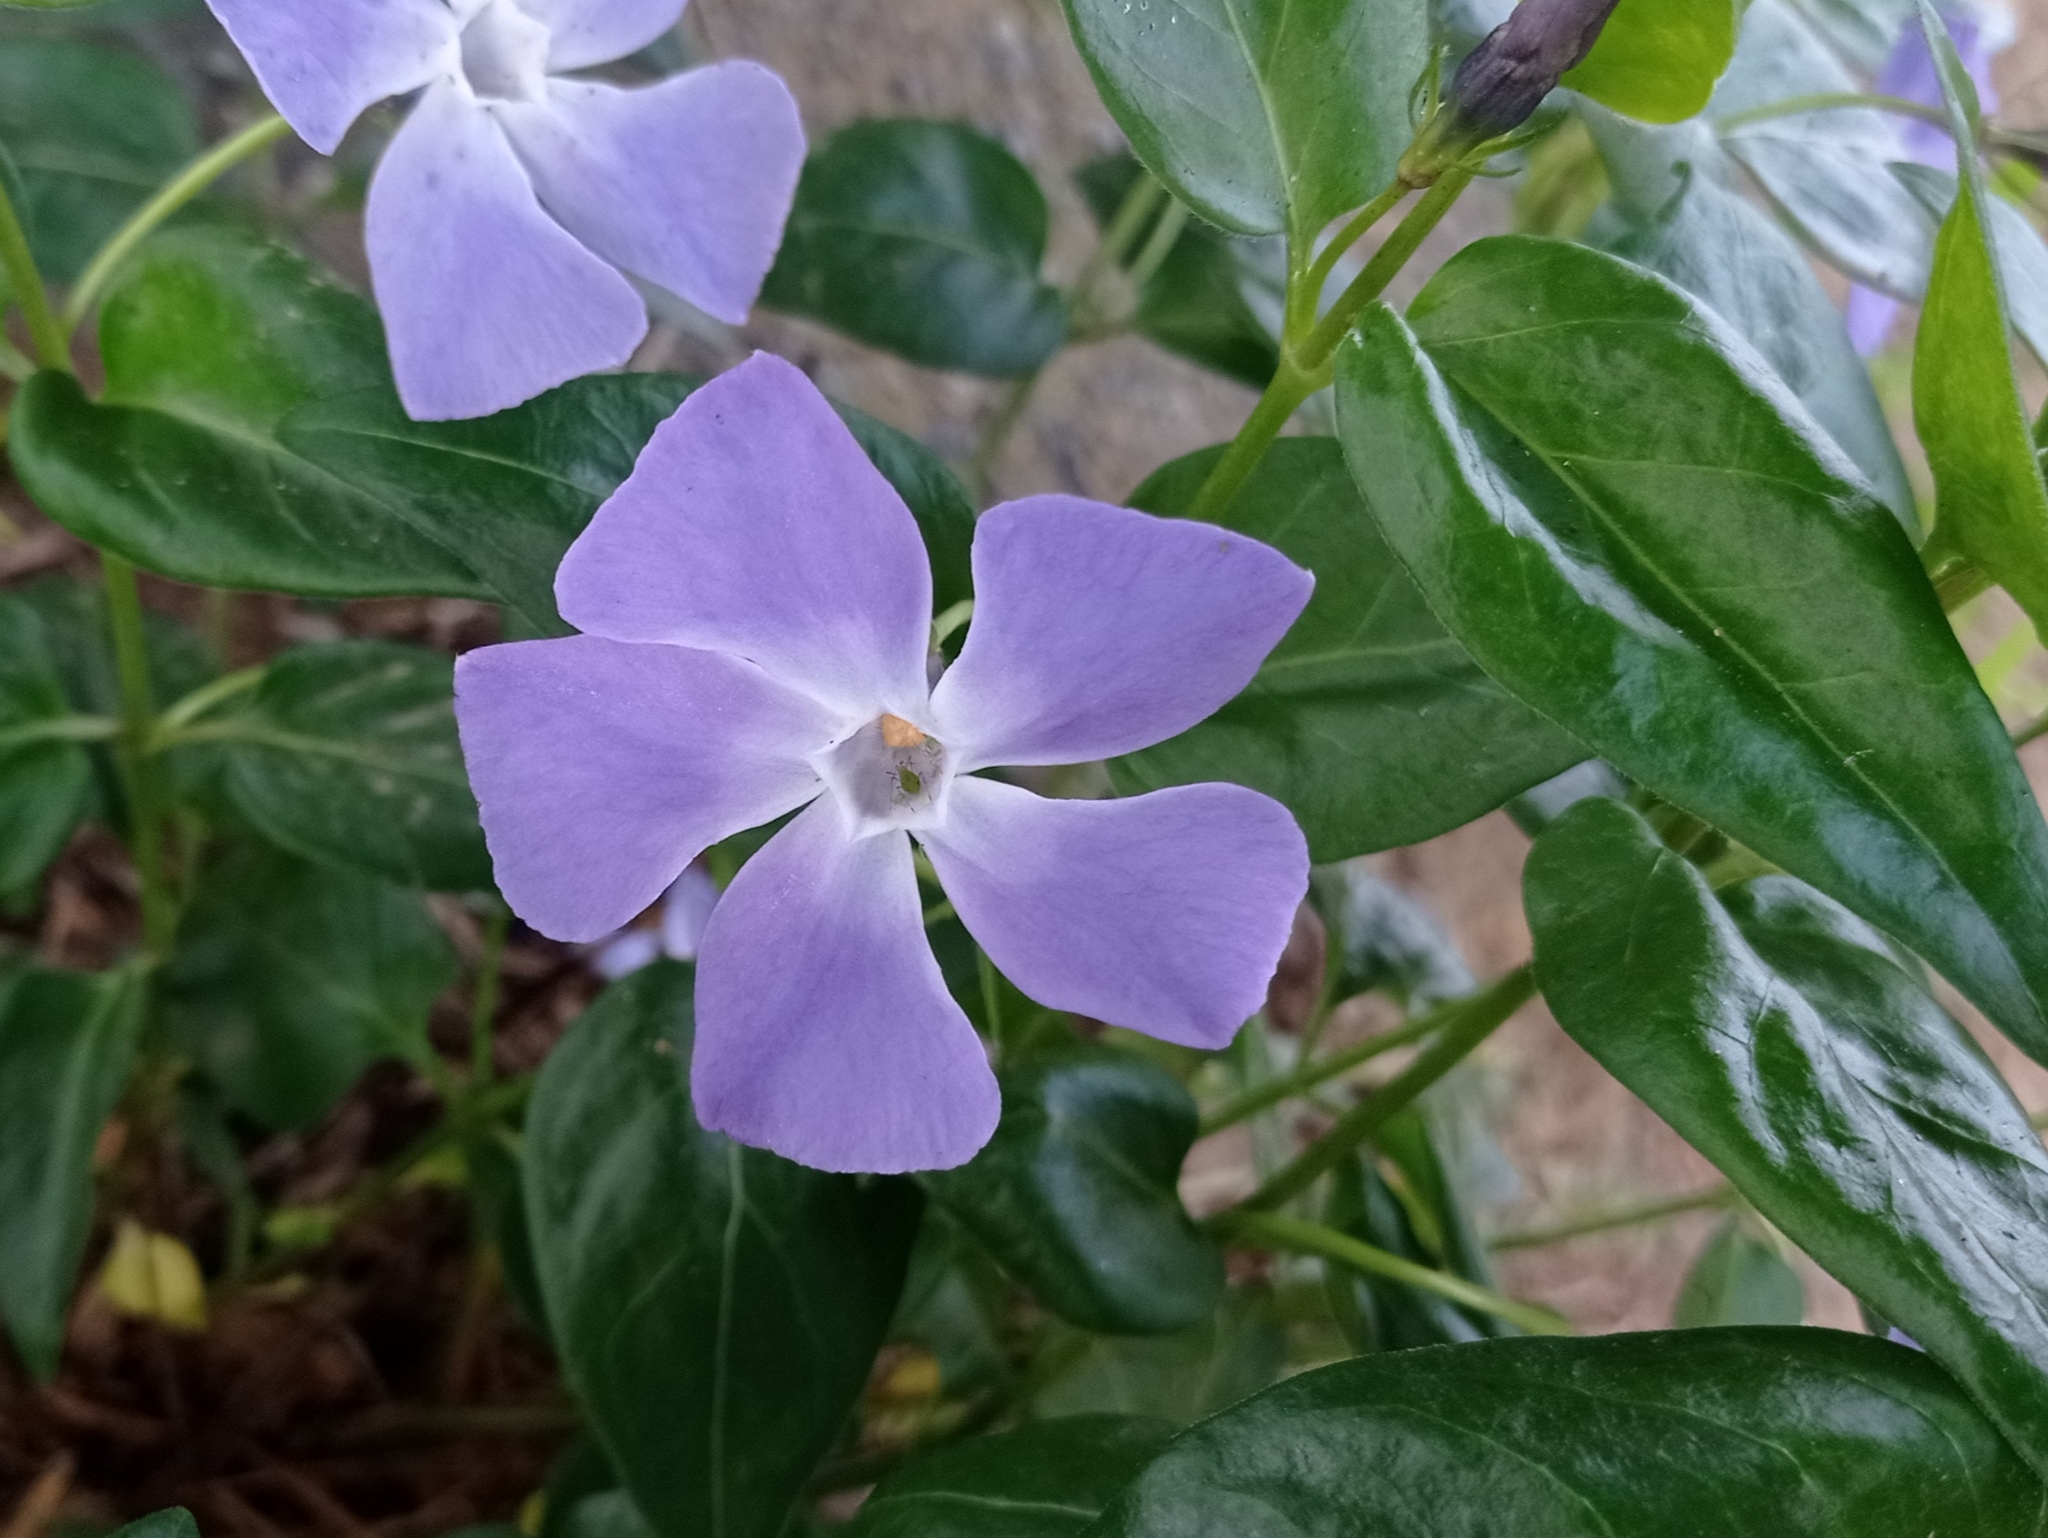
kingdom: Plantae
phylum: Tracheophyta
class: Magnoliopsida
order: Gentianales
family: Apocynaceae
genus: Vinca
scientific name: Vinca major
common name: Greater periwinkle
